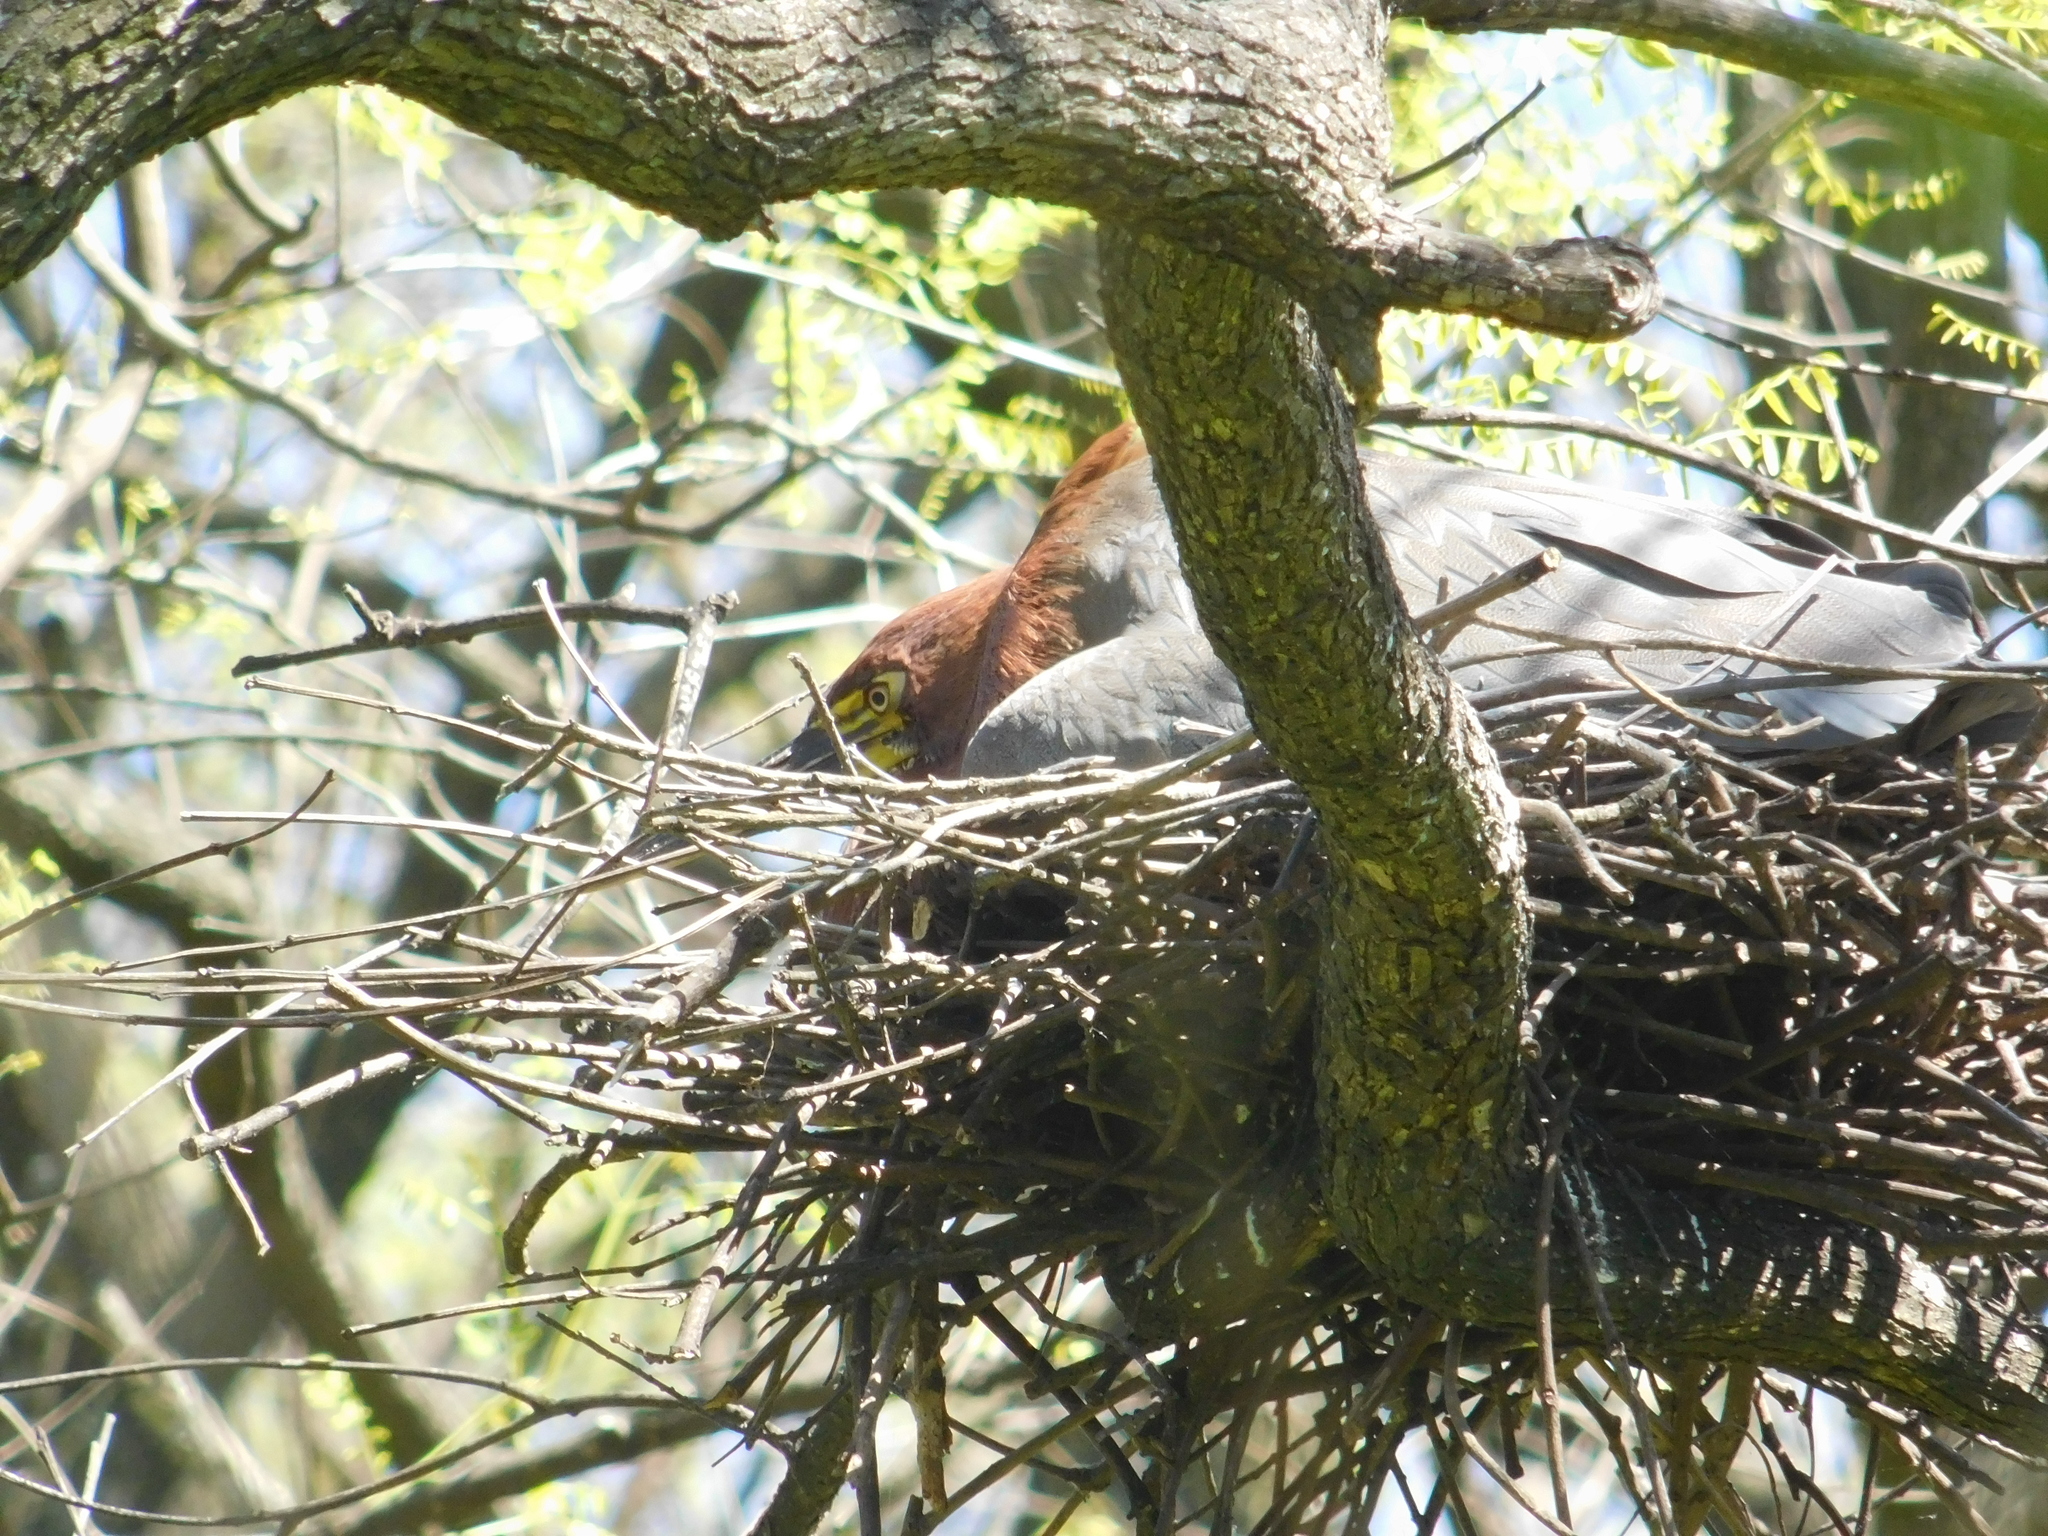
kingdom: Animalia
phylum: Chordata
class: Aves
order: Pelecaniformes
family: Ardeidae
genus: Tigrisoma
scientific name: Tigrisoma lineatum
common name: Rufescent tiger-heron
